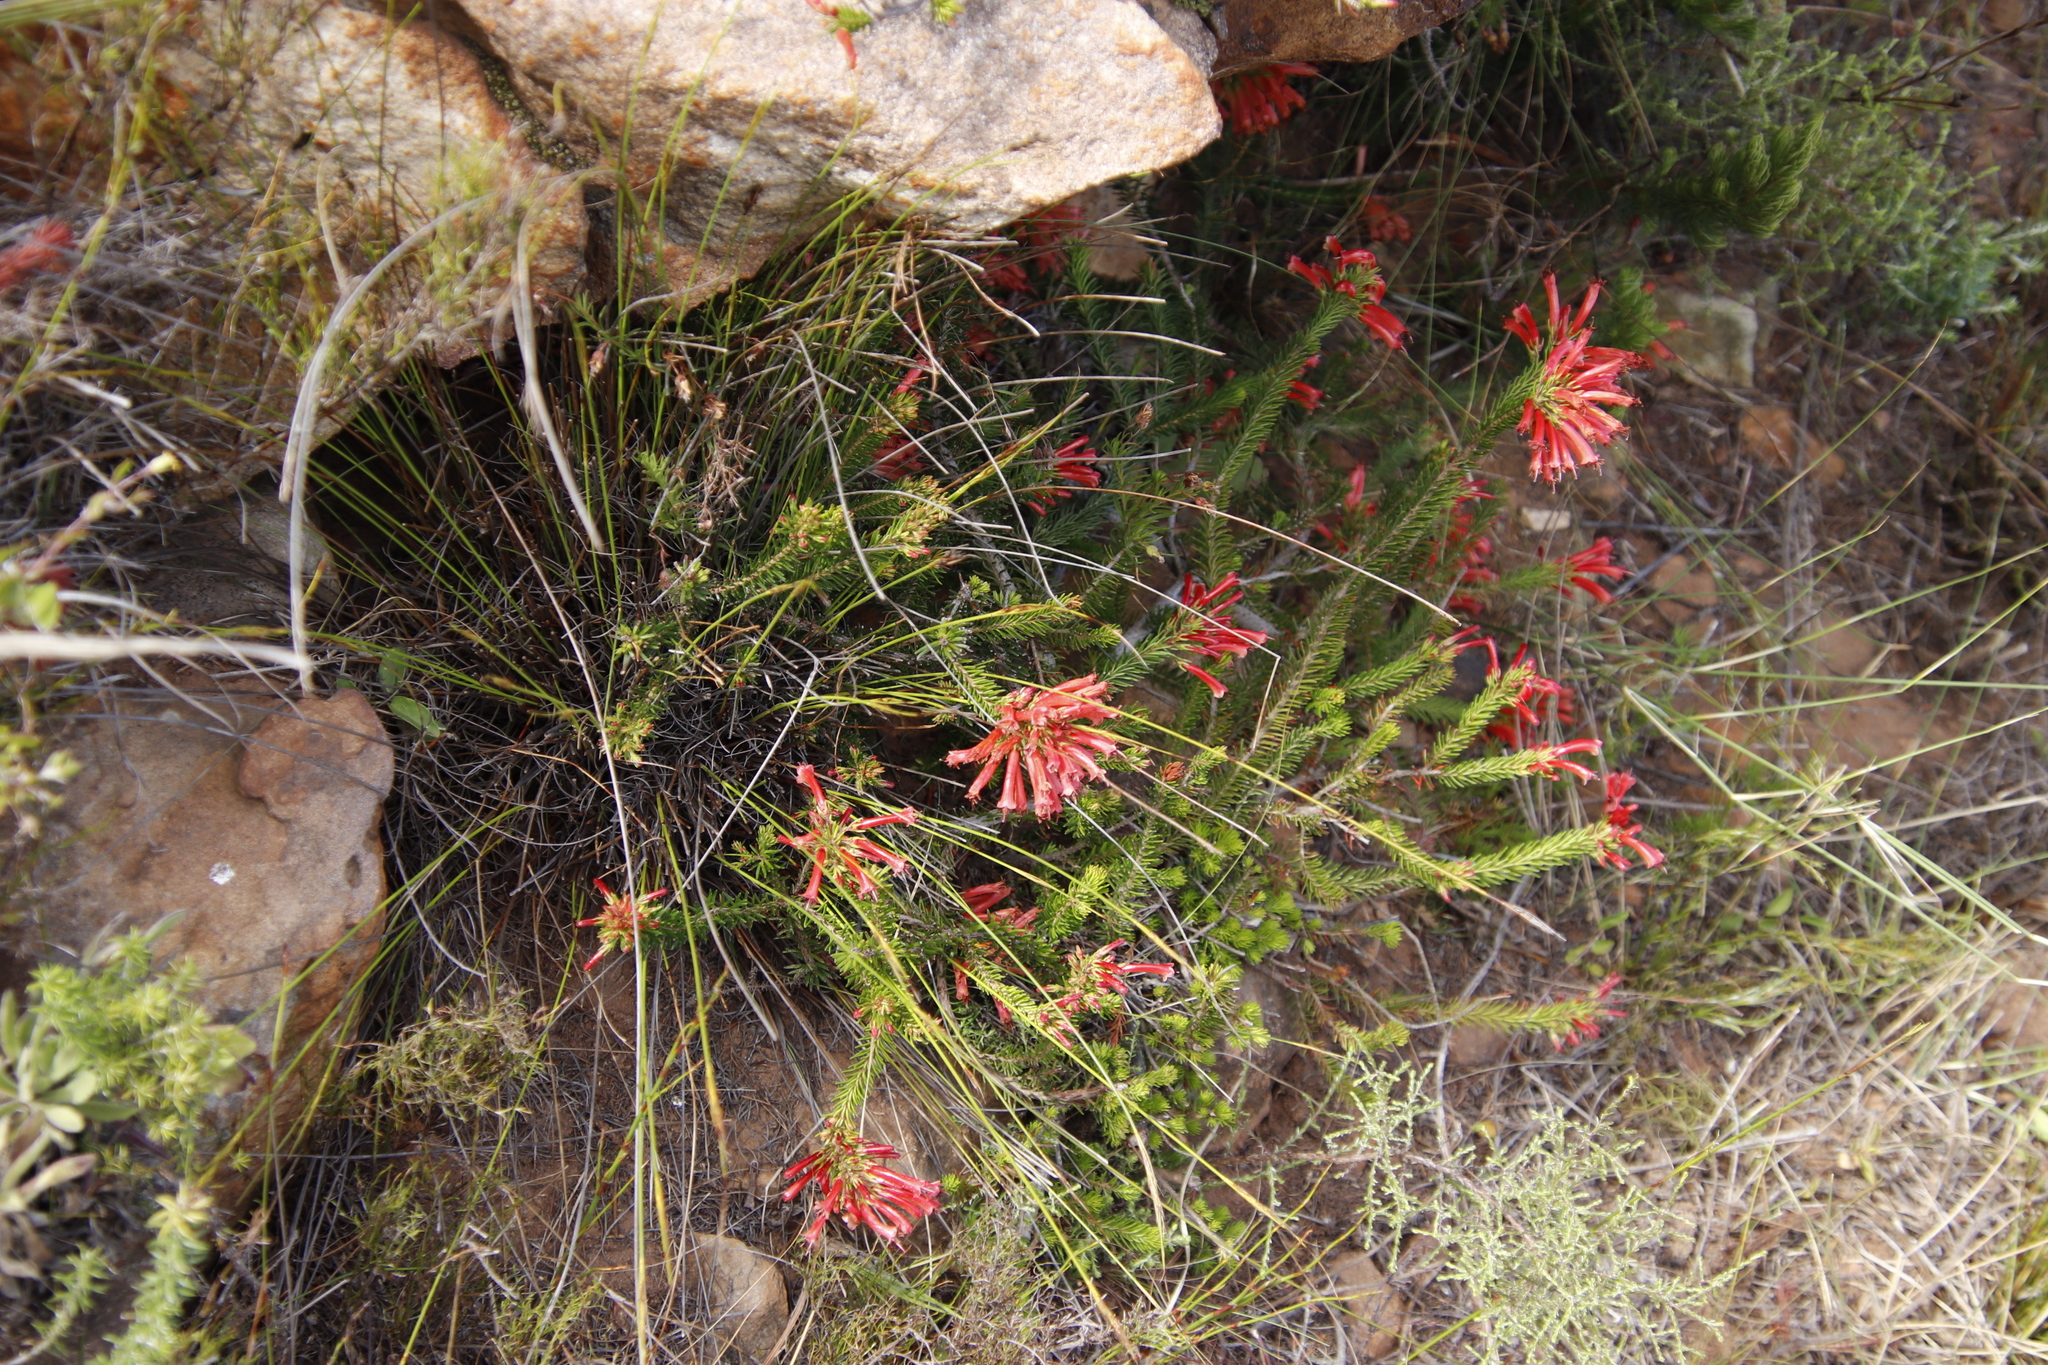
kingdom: Plantae
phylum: Tracheophyta
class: Magnoliopsida
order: Ericales
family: Ericaceae
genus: Erica
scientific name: Erica nevillei
